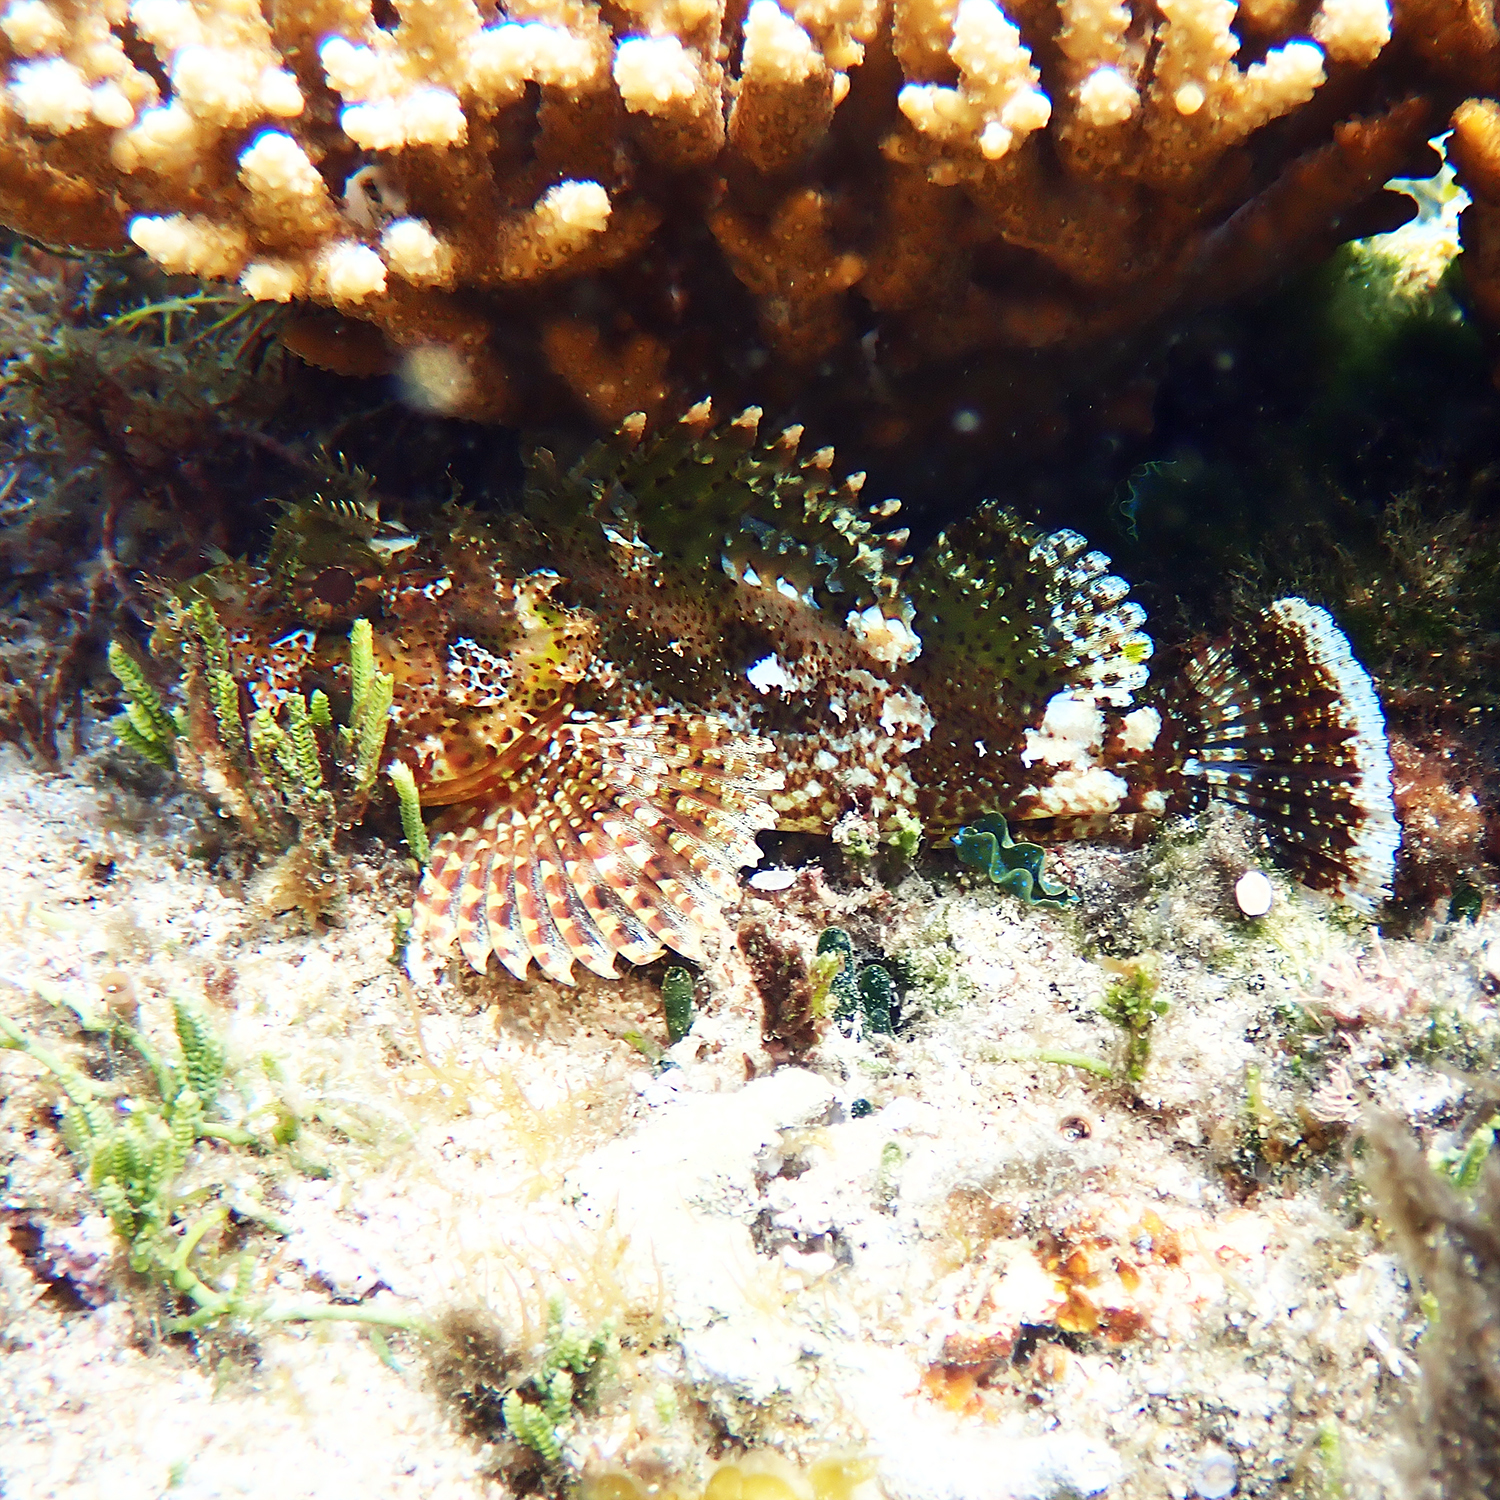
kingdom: Animalia
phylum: Chordata
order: Scorpaeniformes
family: Scorpaenidae
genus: Scorpaena
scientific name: Scorpaena cardinalis
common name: Cardinal scorpionfish
